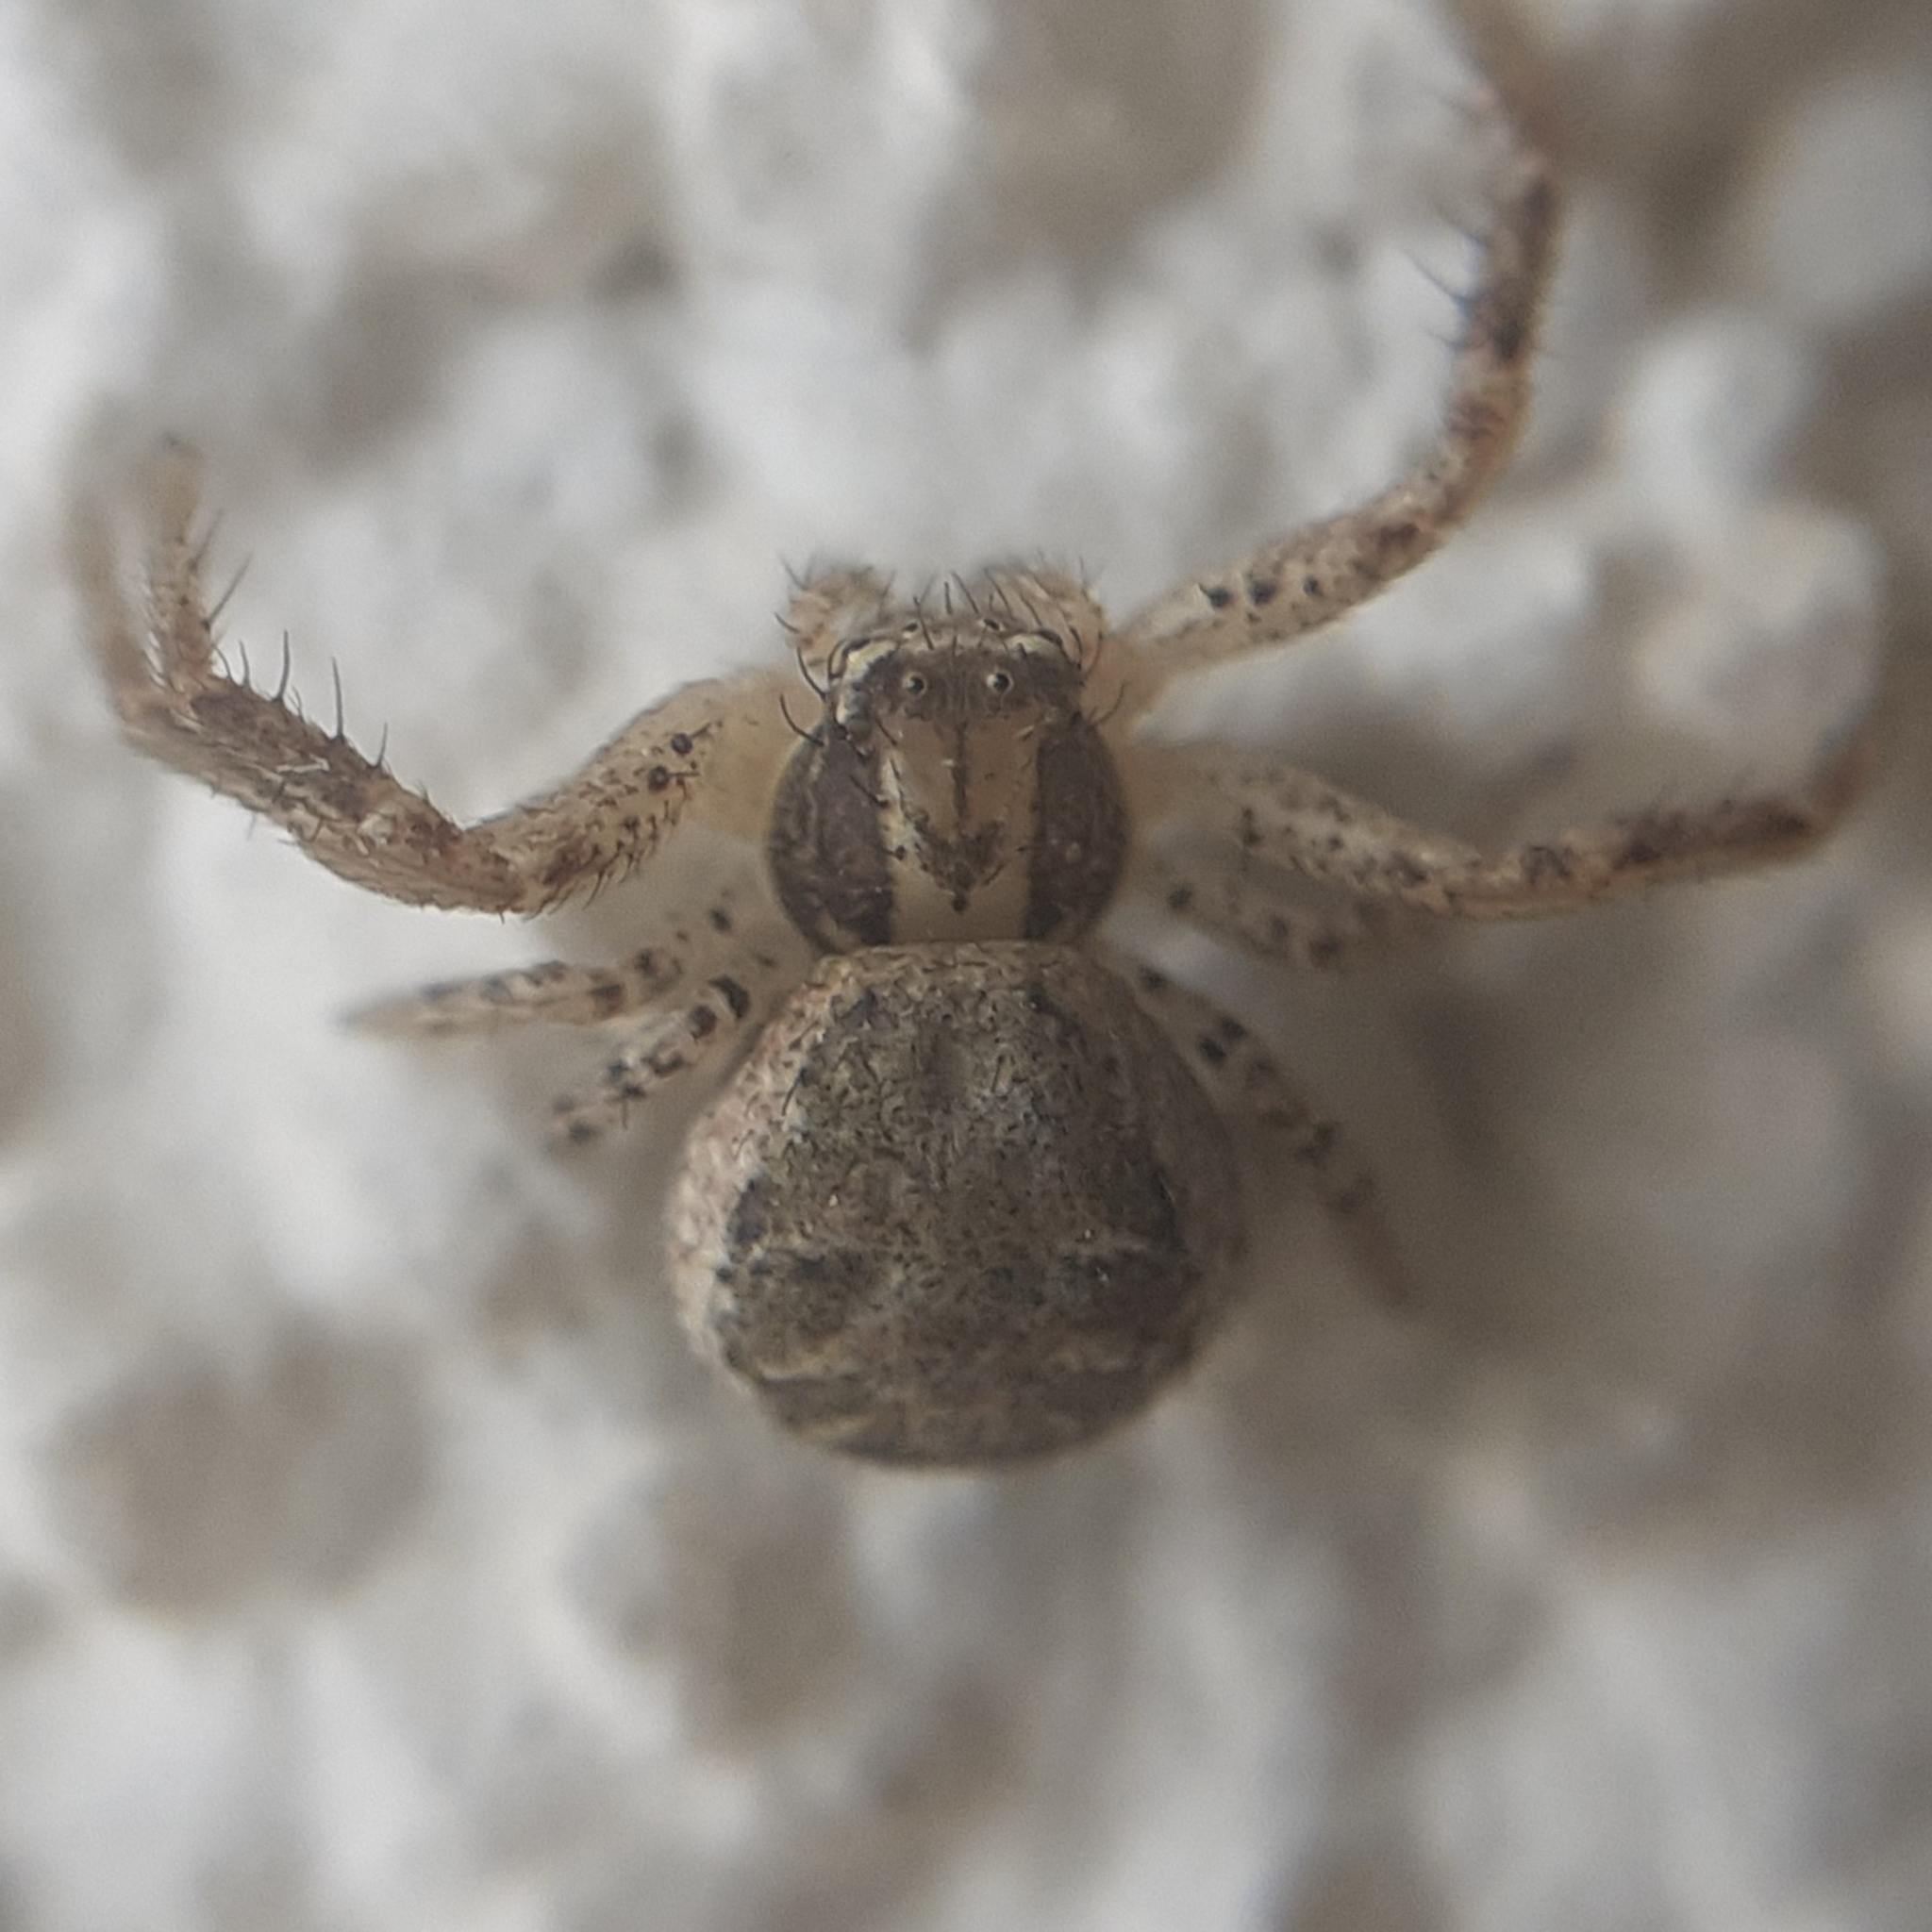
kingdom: Animalia
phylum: Arthropoda
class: Arachnida
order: Araneae
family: Thomisidae
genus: Xysticus
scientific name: Xysticus
